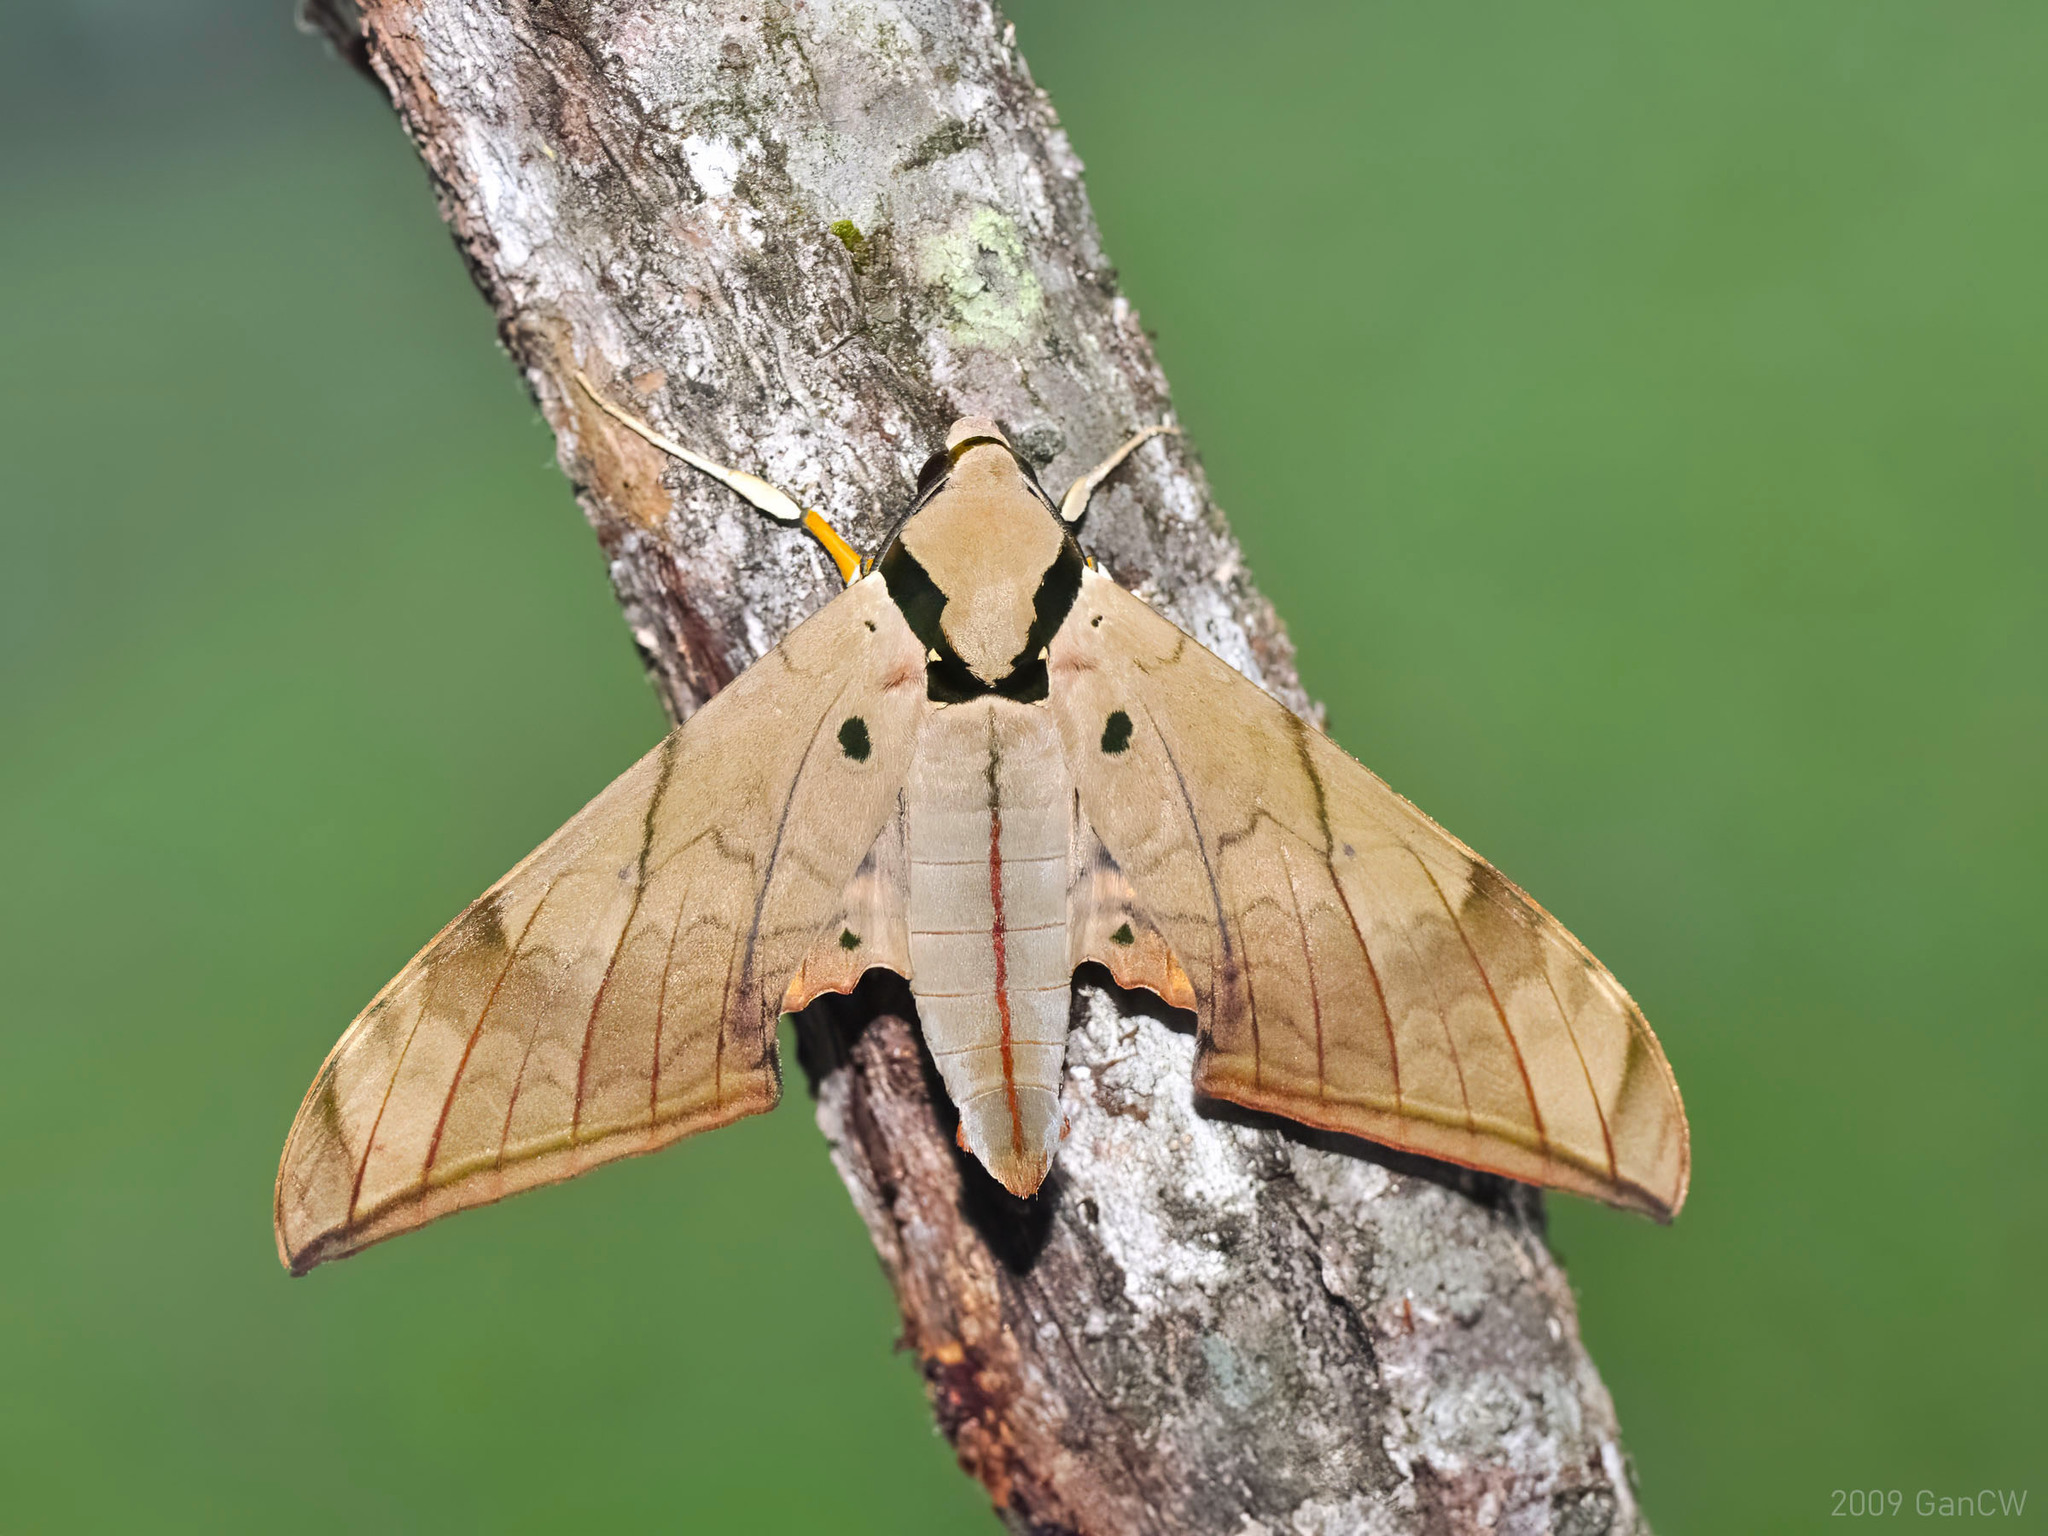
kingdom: Animalia
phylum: Arthropoda
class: Insecta
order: Lepidoptera
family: Sphingidae
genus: Ambulyx
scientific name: Ambulyx pryeri
